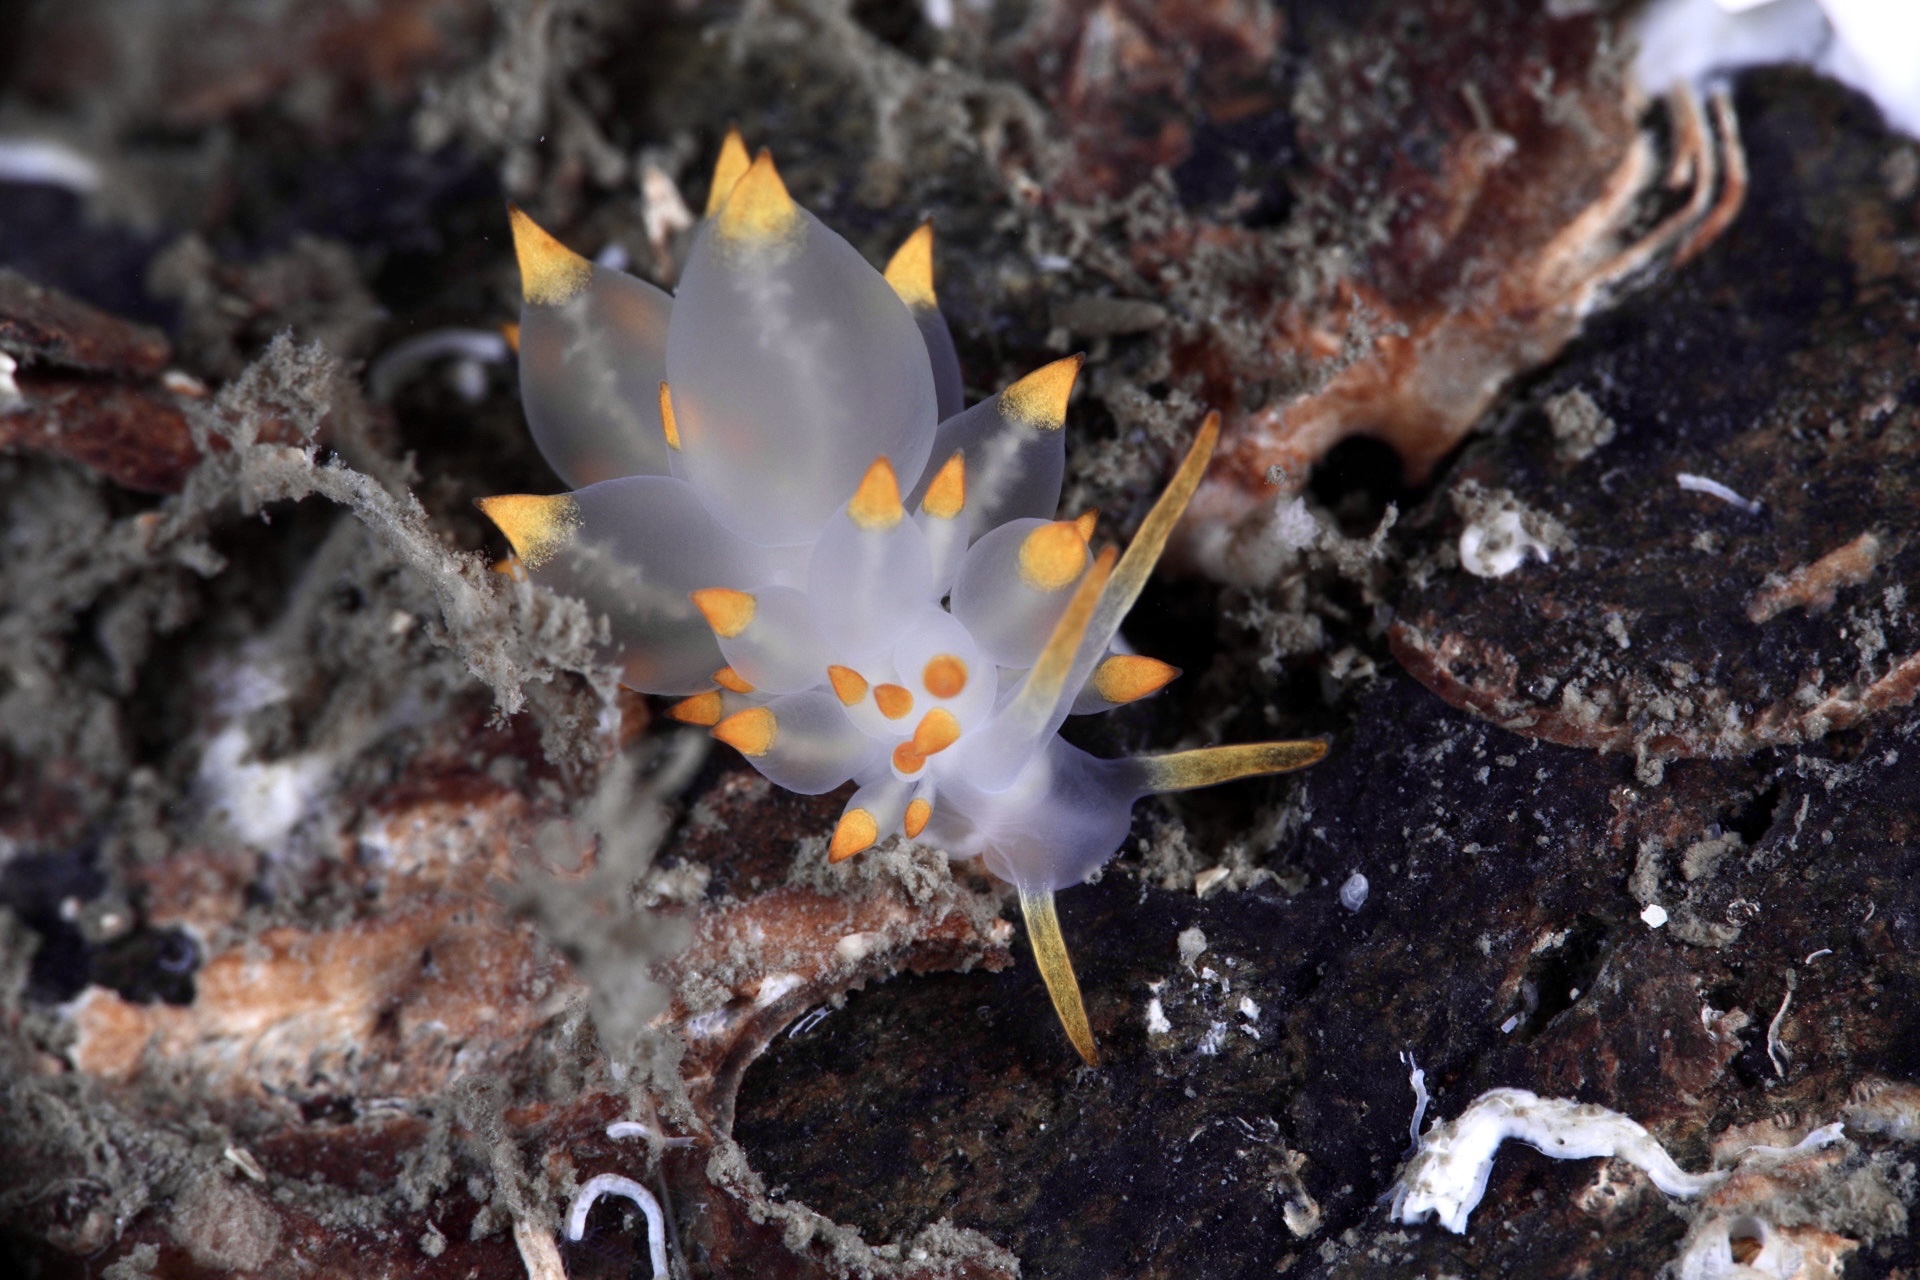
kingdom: Animalia
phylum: Mollusca
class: Gastropoda
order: Nudibranchia
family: Eubranchidae
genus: Amphorina
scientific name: Amphorina farrani
